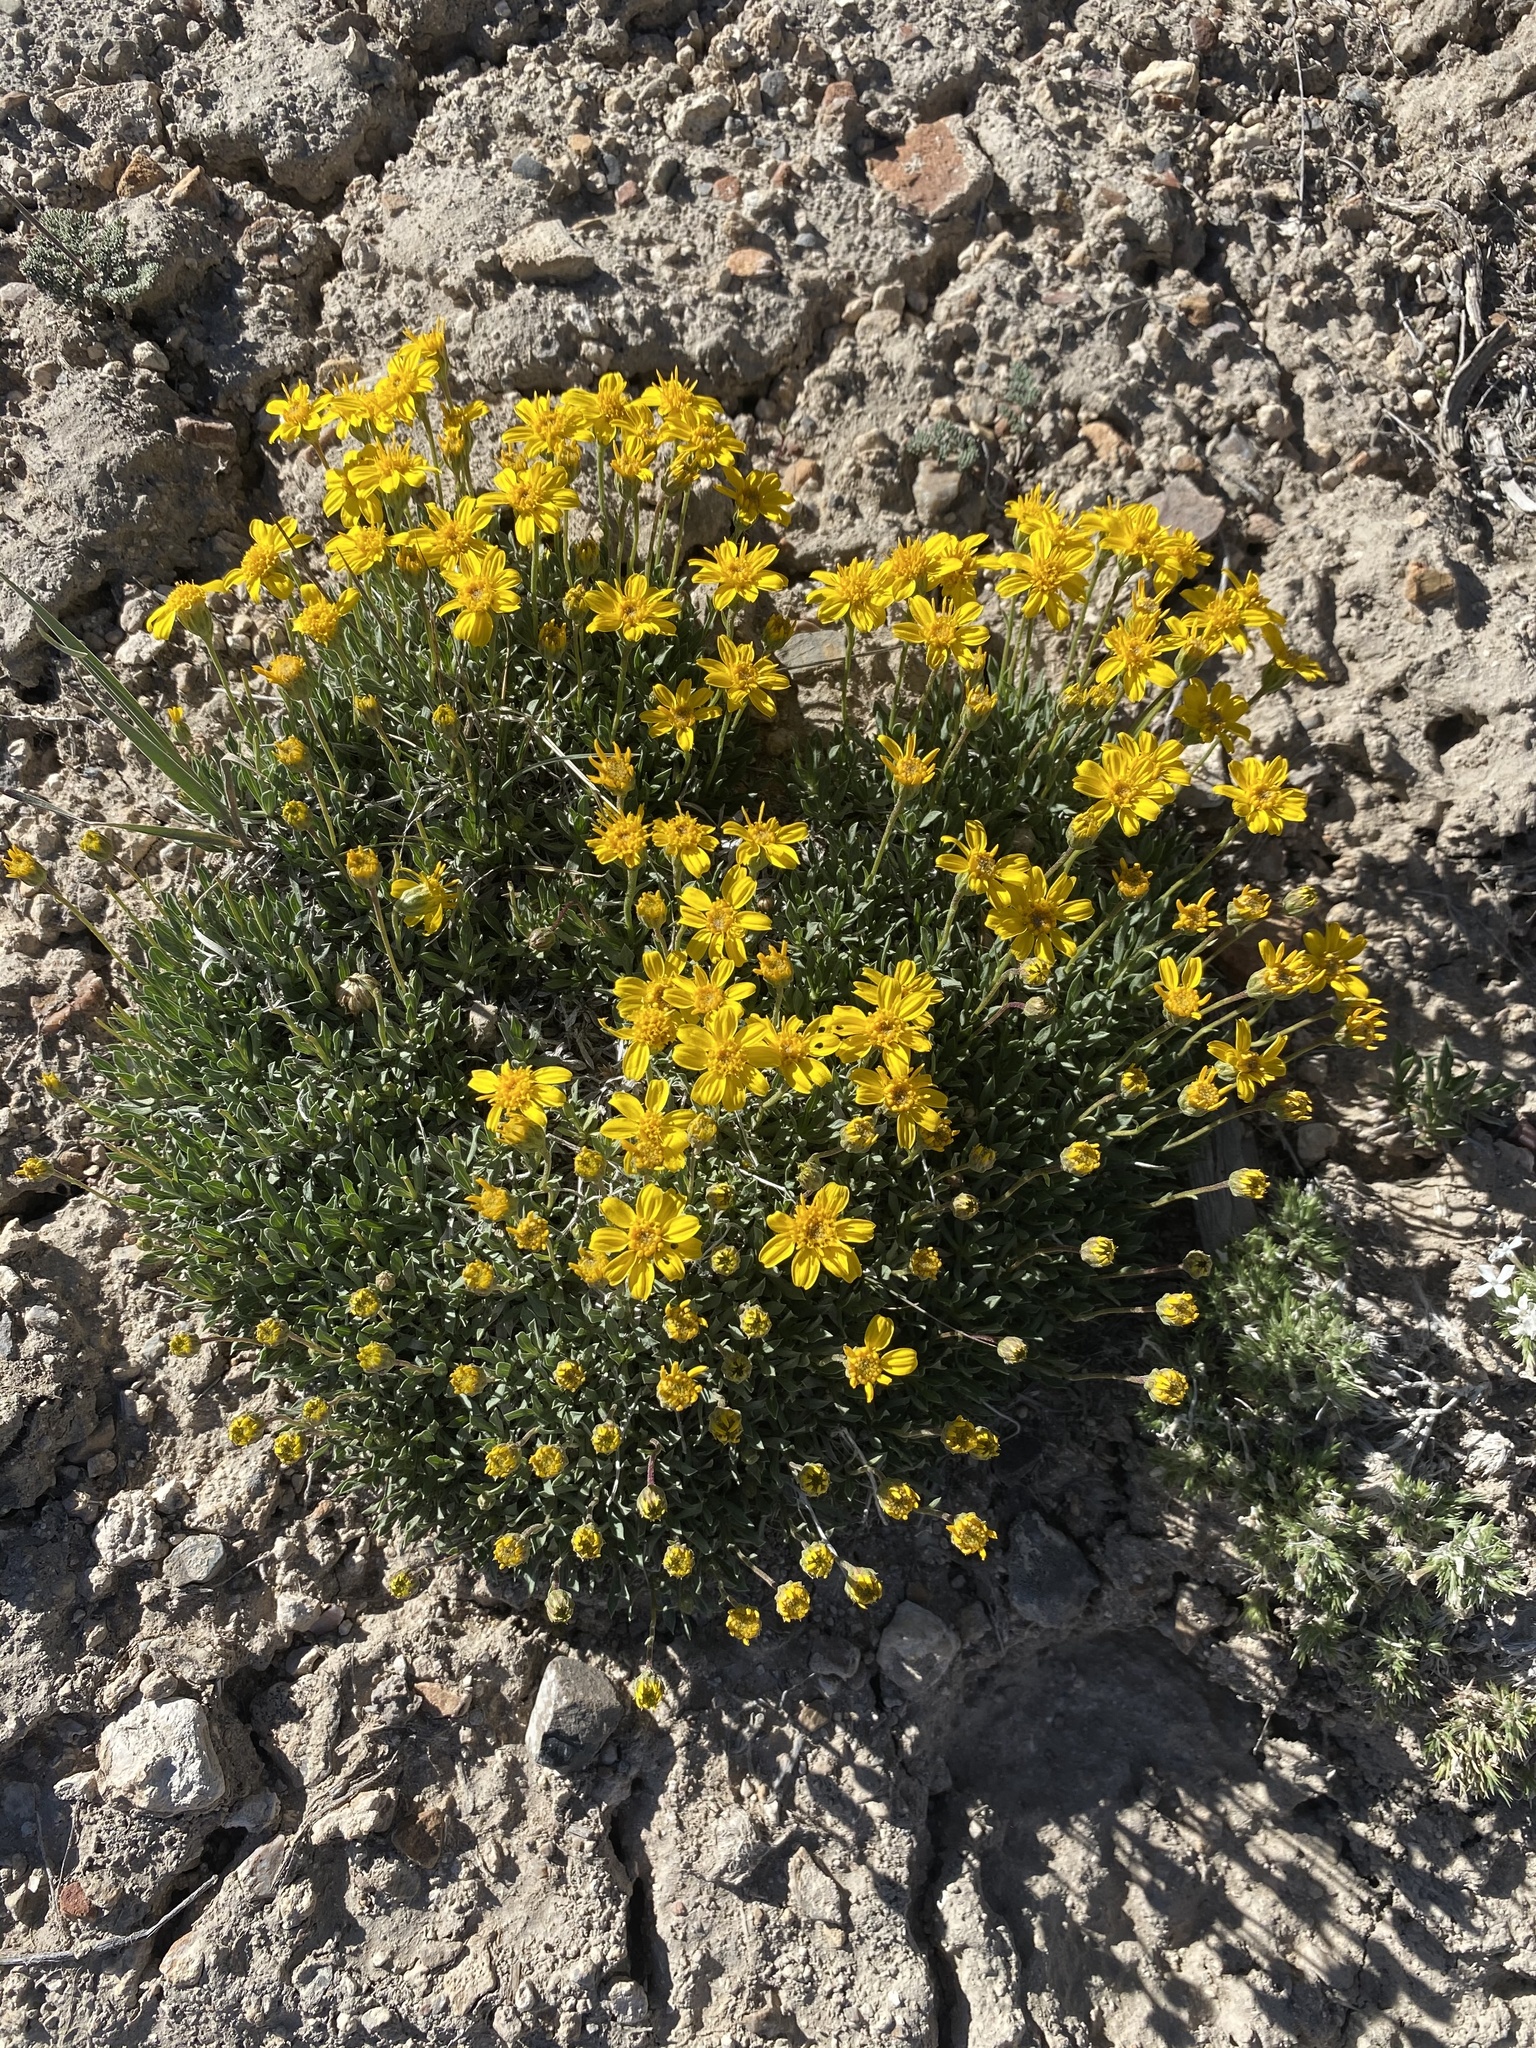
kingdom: Plantae
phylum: Tracheophyta
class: Magnoliopsida
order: Asterales
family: Asteraceae
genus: Stenotus
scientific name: Stenotus acaulis
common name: Stemless goldenweed
